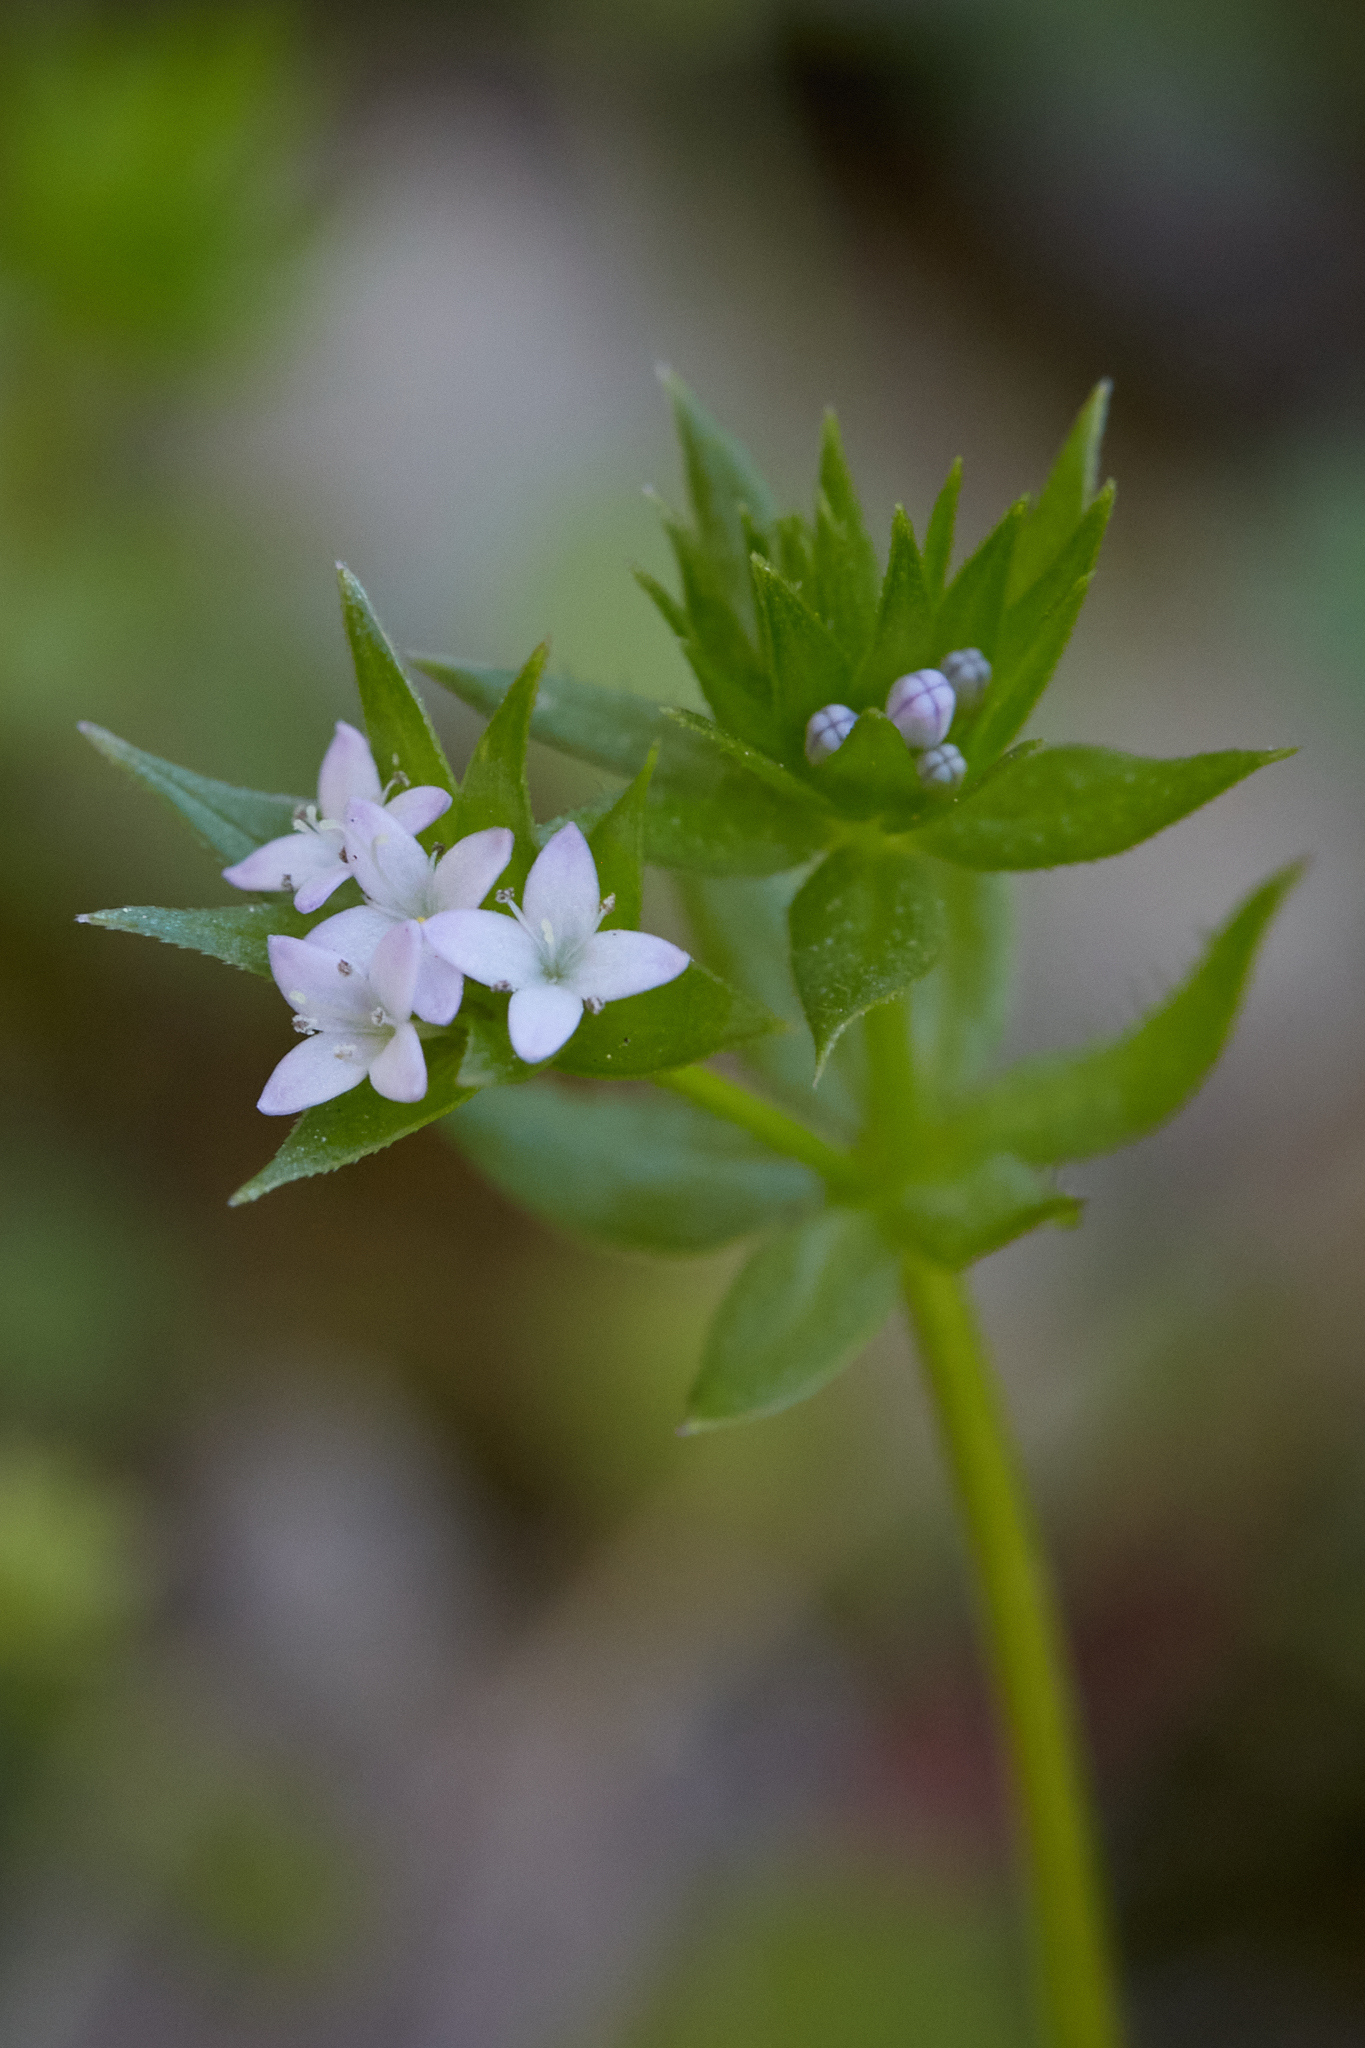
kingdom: Plantae
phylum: Tracheophyta
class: Magnoliopsida
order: Gentianales
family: Rubiaceae
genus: Sherardia
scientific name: Sherardia arvensis
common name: Field madder
